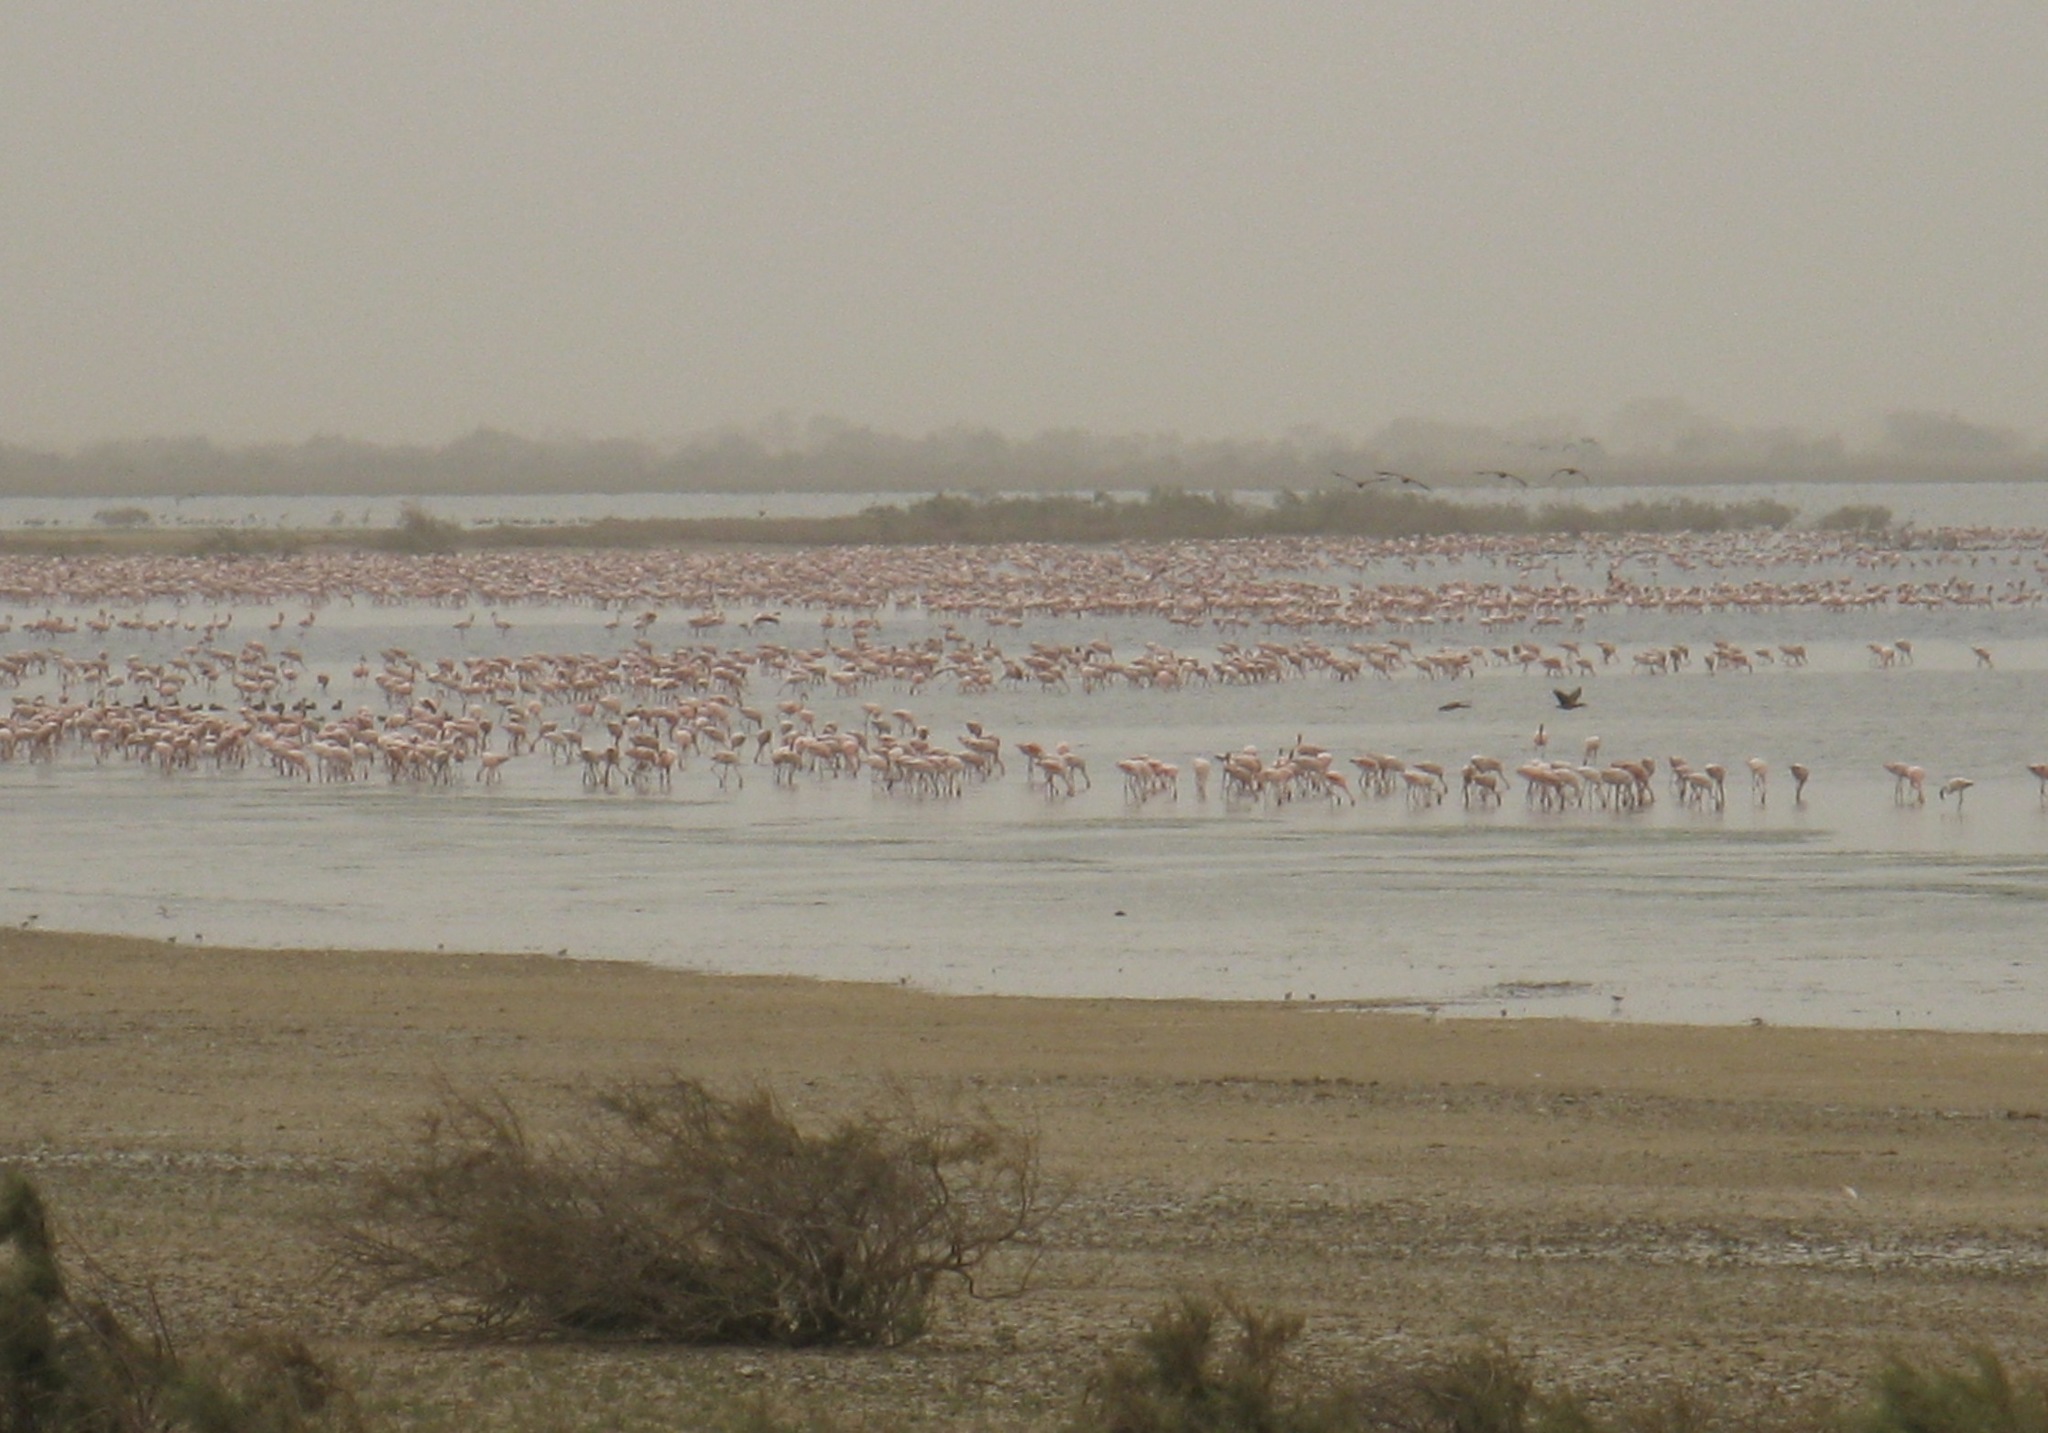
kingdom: Animalia
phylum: Chordata
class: Aves
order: Phoenicopteriformes
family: Phoenicopteridae
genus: Phoeniconaias
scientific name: Phoeniconaias minor
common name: Lesser flamingo
